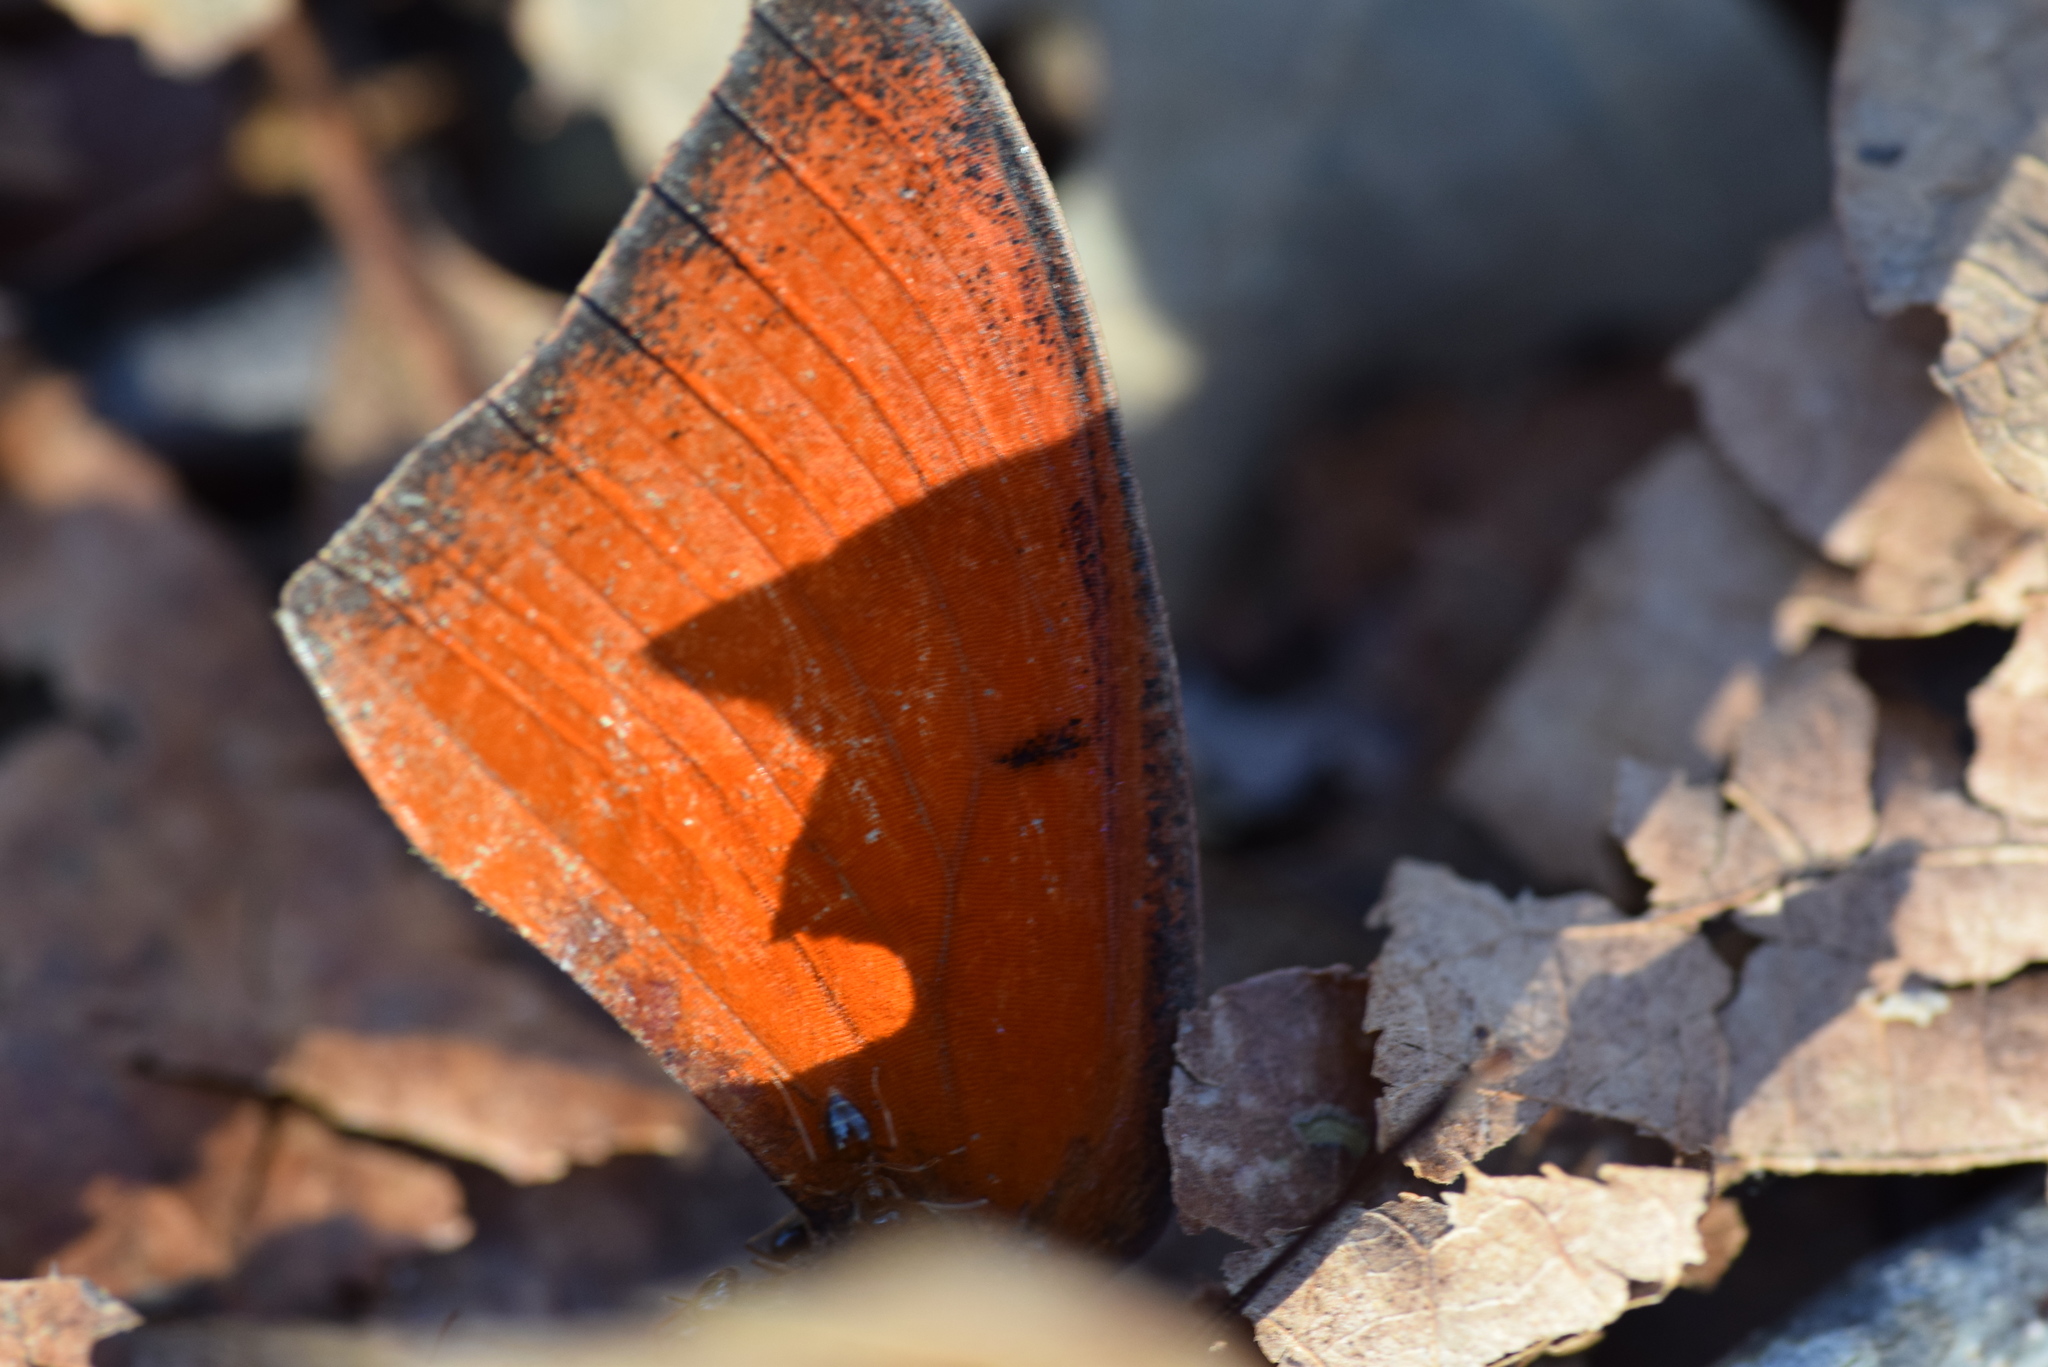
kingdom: Animalia
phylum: Arthropoda
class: Insecta
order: Lepidoptera
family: Nymphalidae
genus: Anaea
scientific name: Anaea andria
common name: Goatweed leafwing
